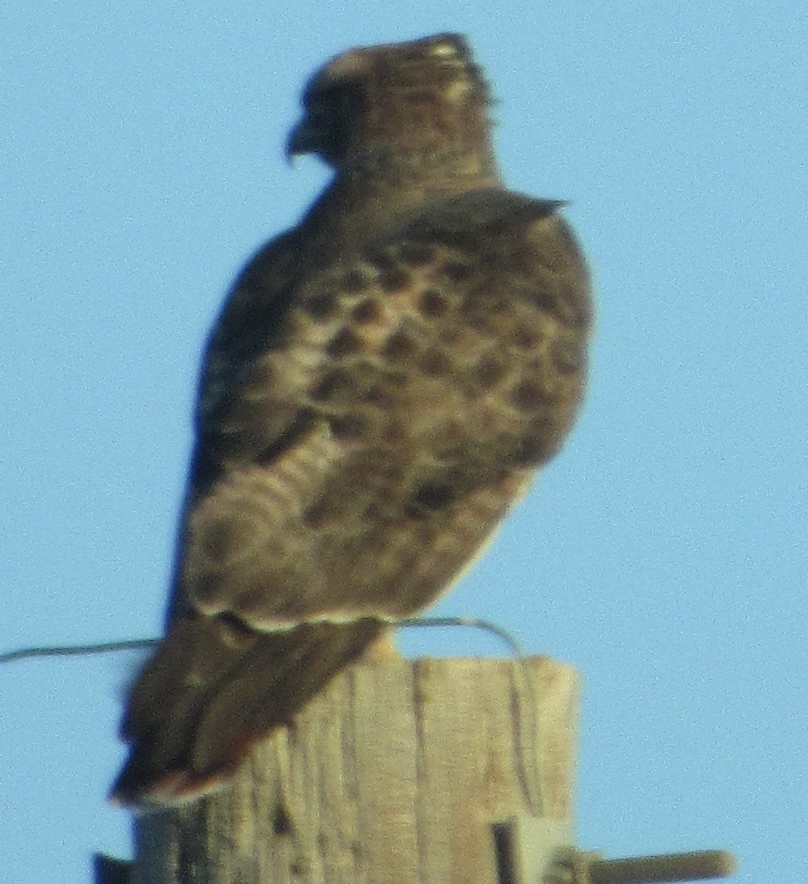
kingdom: Animalia
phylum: Chordata
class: Aves
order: Accipitriformes
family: Accipitridae
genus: Buteo
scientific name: Buteo jamaicensis
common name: Red-tailed hawk
